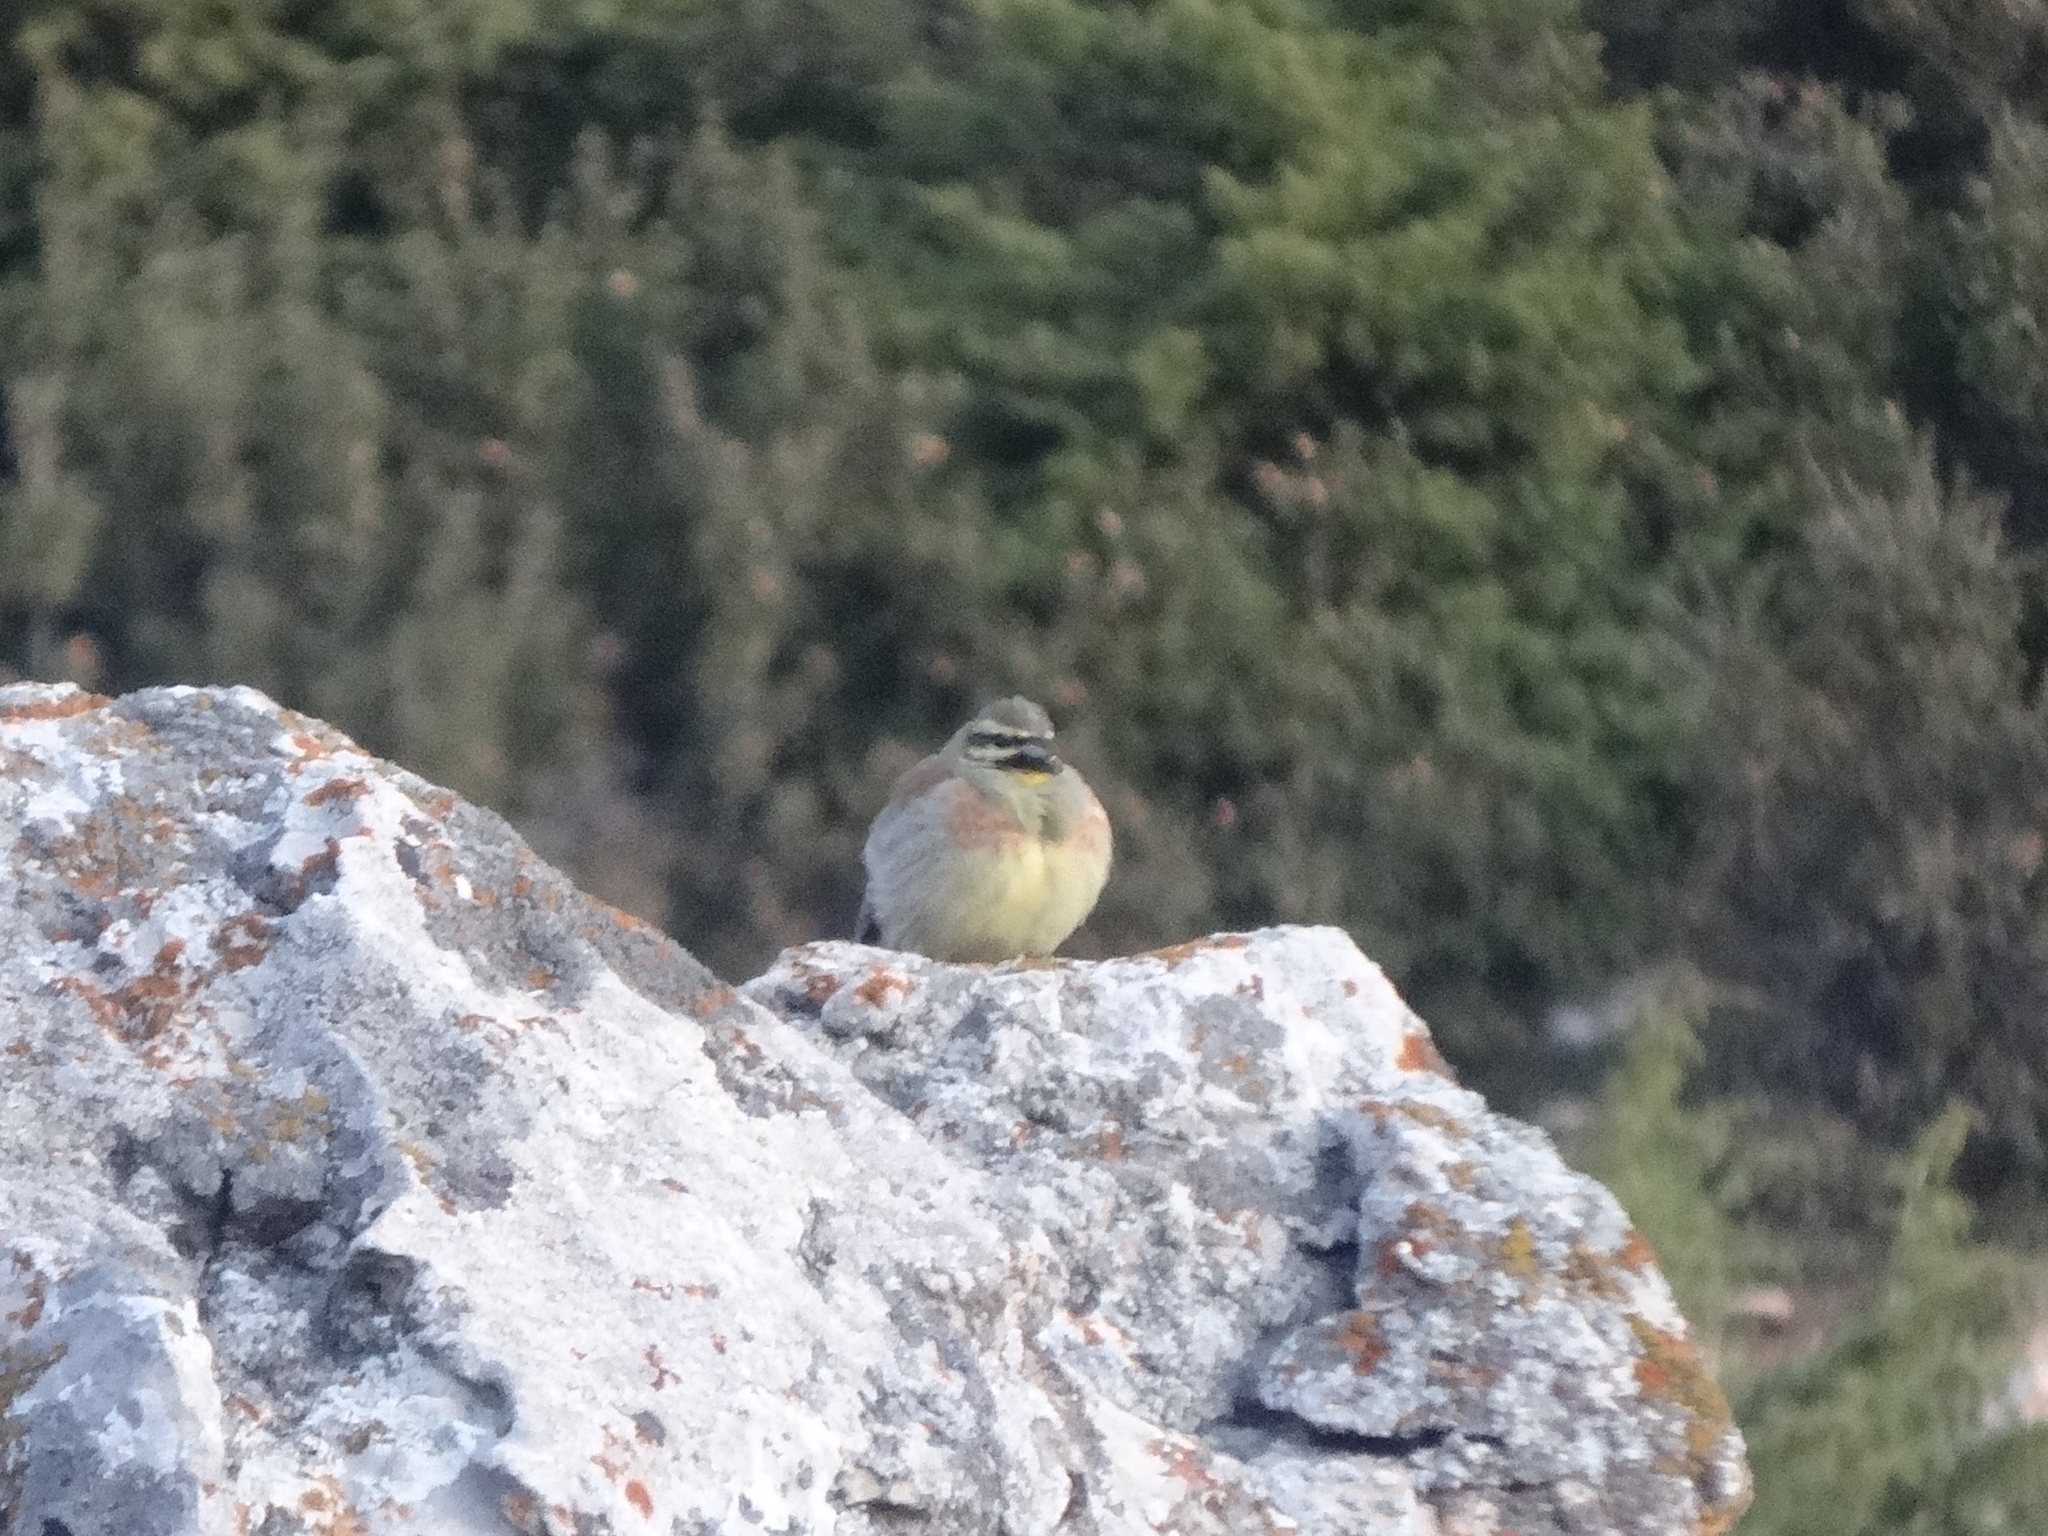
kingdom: Animalia
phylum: Chordata
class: Aves
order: Passeriformes
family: Emberizidae
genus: Emberiza
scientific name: Emberiza cirlus
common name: Cirl bunting
